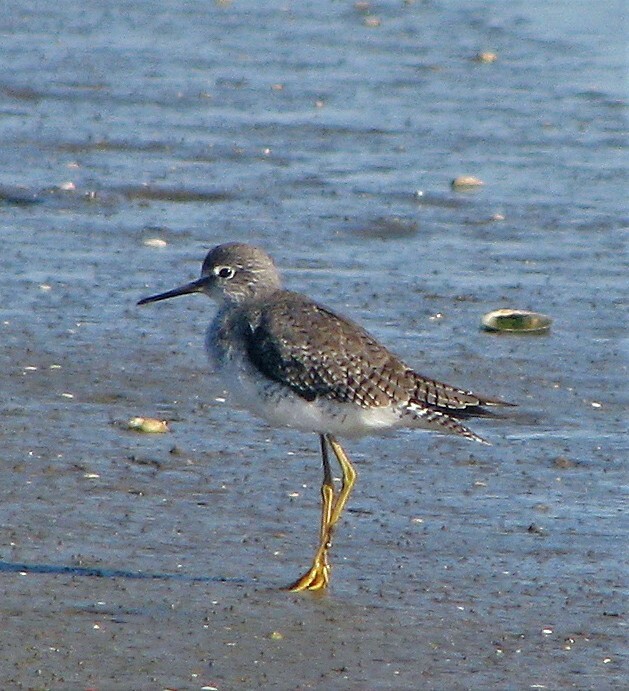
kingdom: Animalia
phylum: Chordata
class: Aves
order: Charadriiformes
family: Scolopacidae
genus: Tringa
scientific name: Tringa flavipes
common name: Lesser yellowlegs
